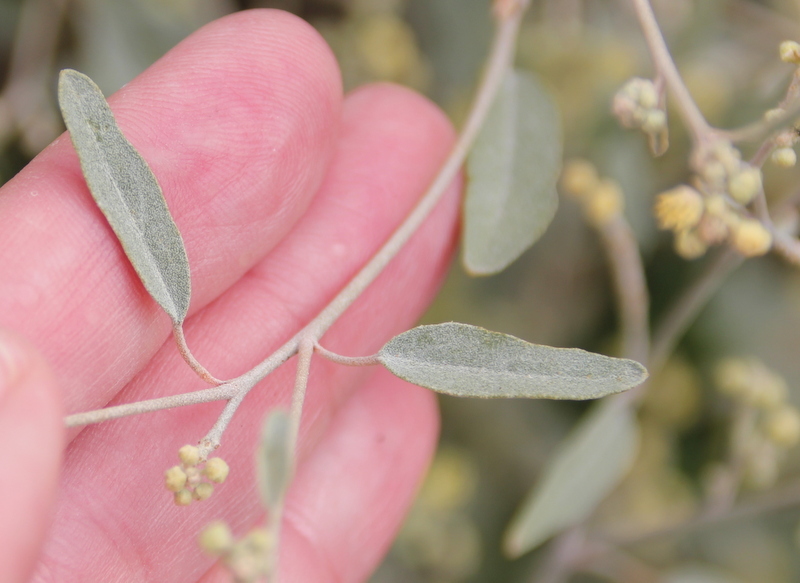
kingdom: Plantae
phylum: Tracheophyta
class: Magnoliopsida
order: Malpighiales
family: Euphorbiaceae
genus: Croton
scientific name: Croton californicus
